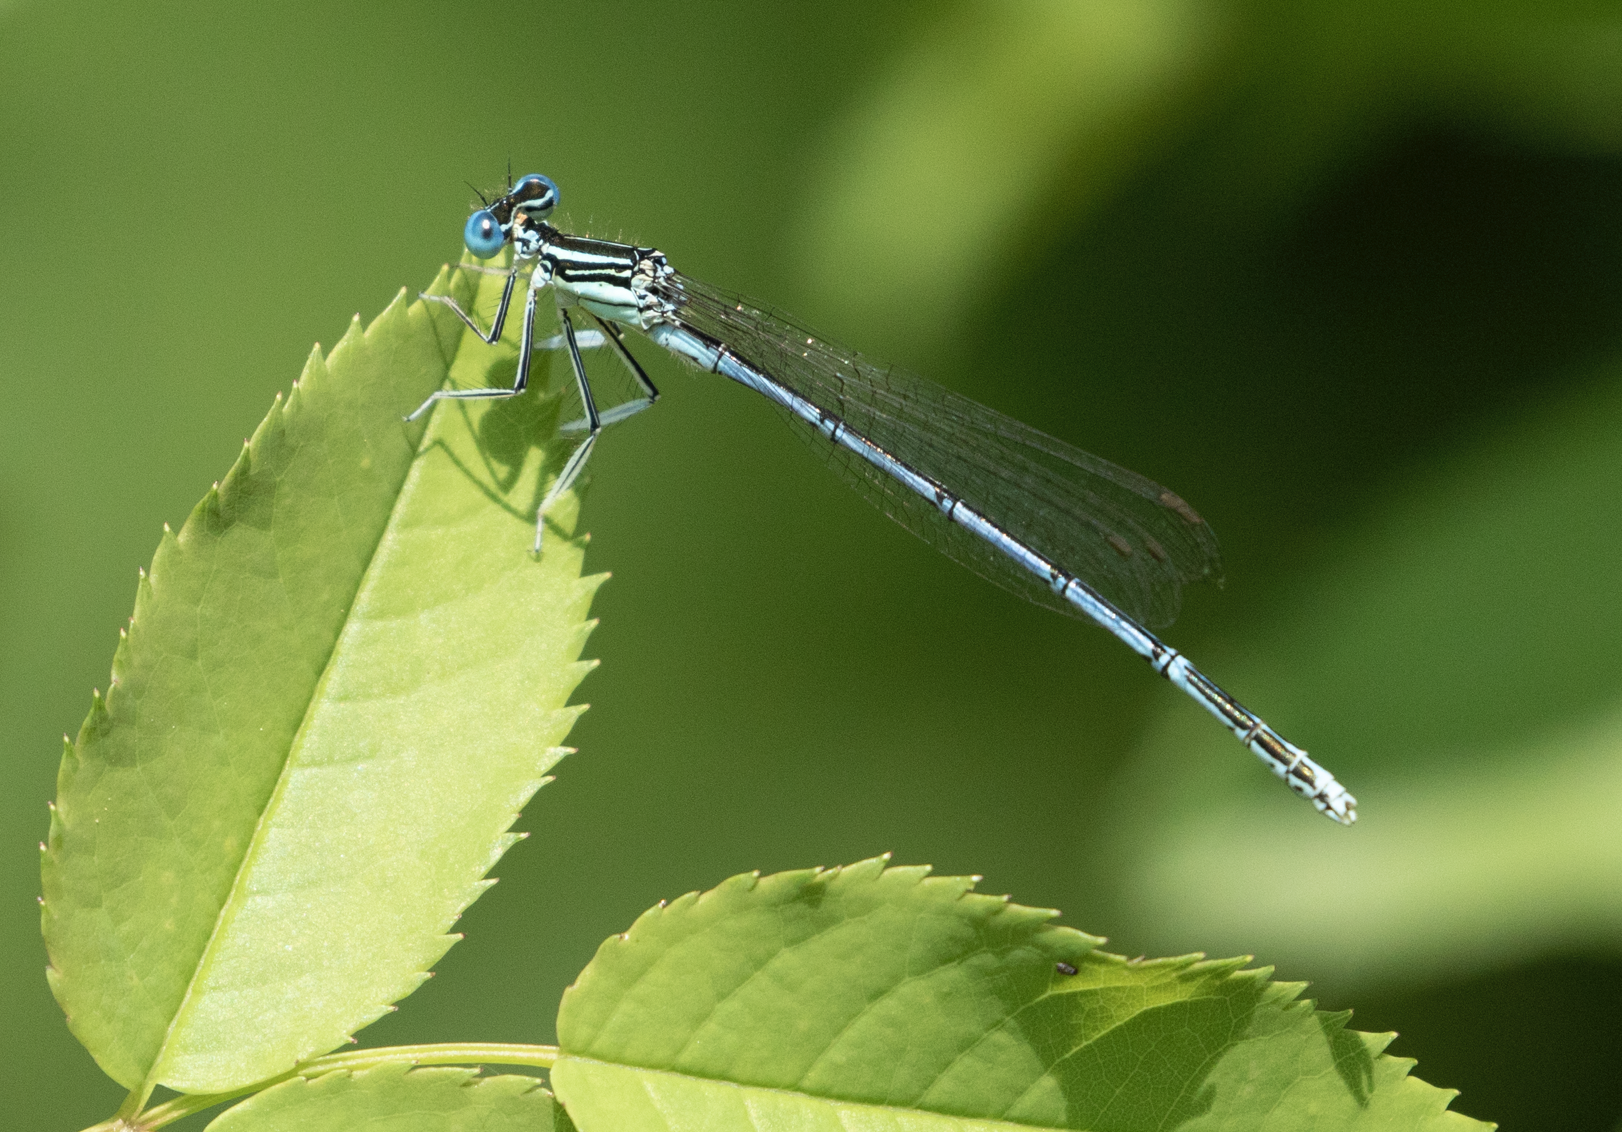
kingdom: Animalia
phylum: Arthropoda
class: Insecta
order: Odonata
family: Platycnemididae
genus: Platycnemis
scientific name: Platycnemis pennipes
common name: White-legged damselfly
